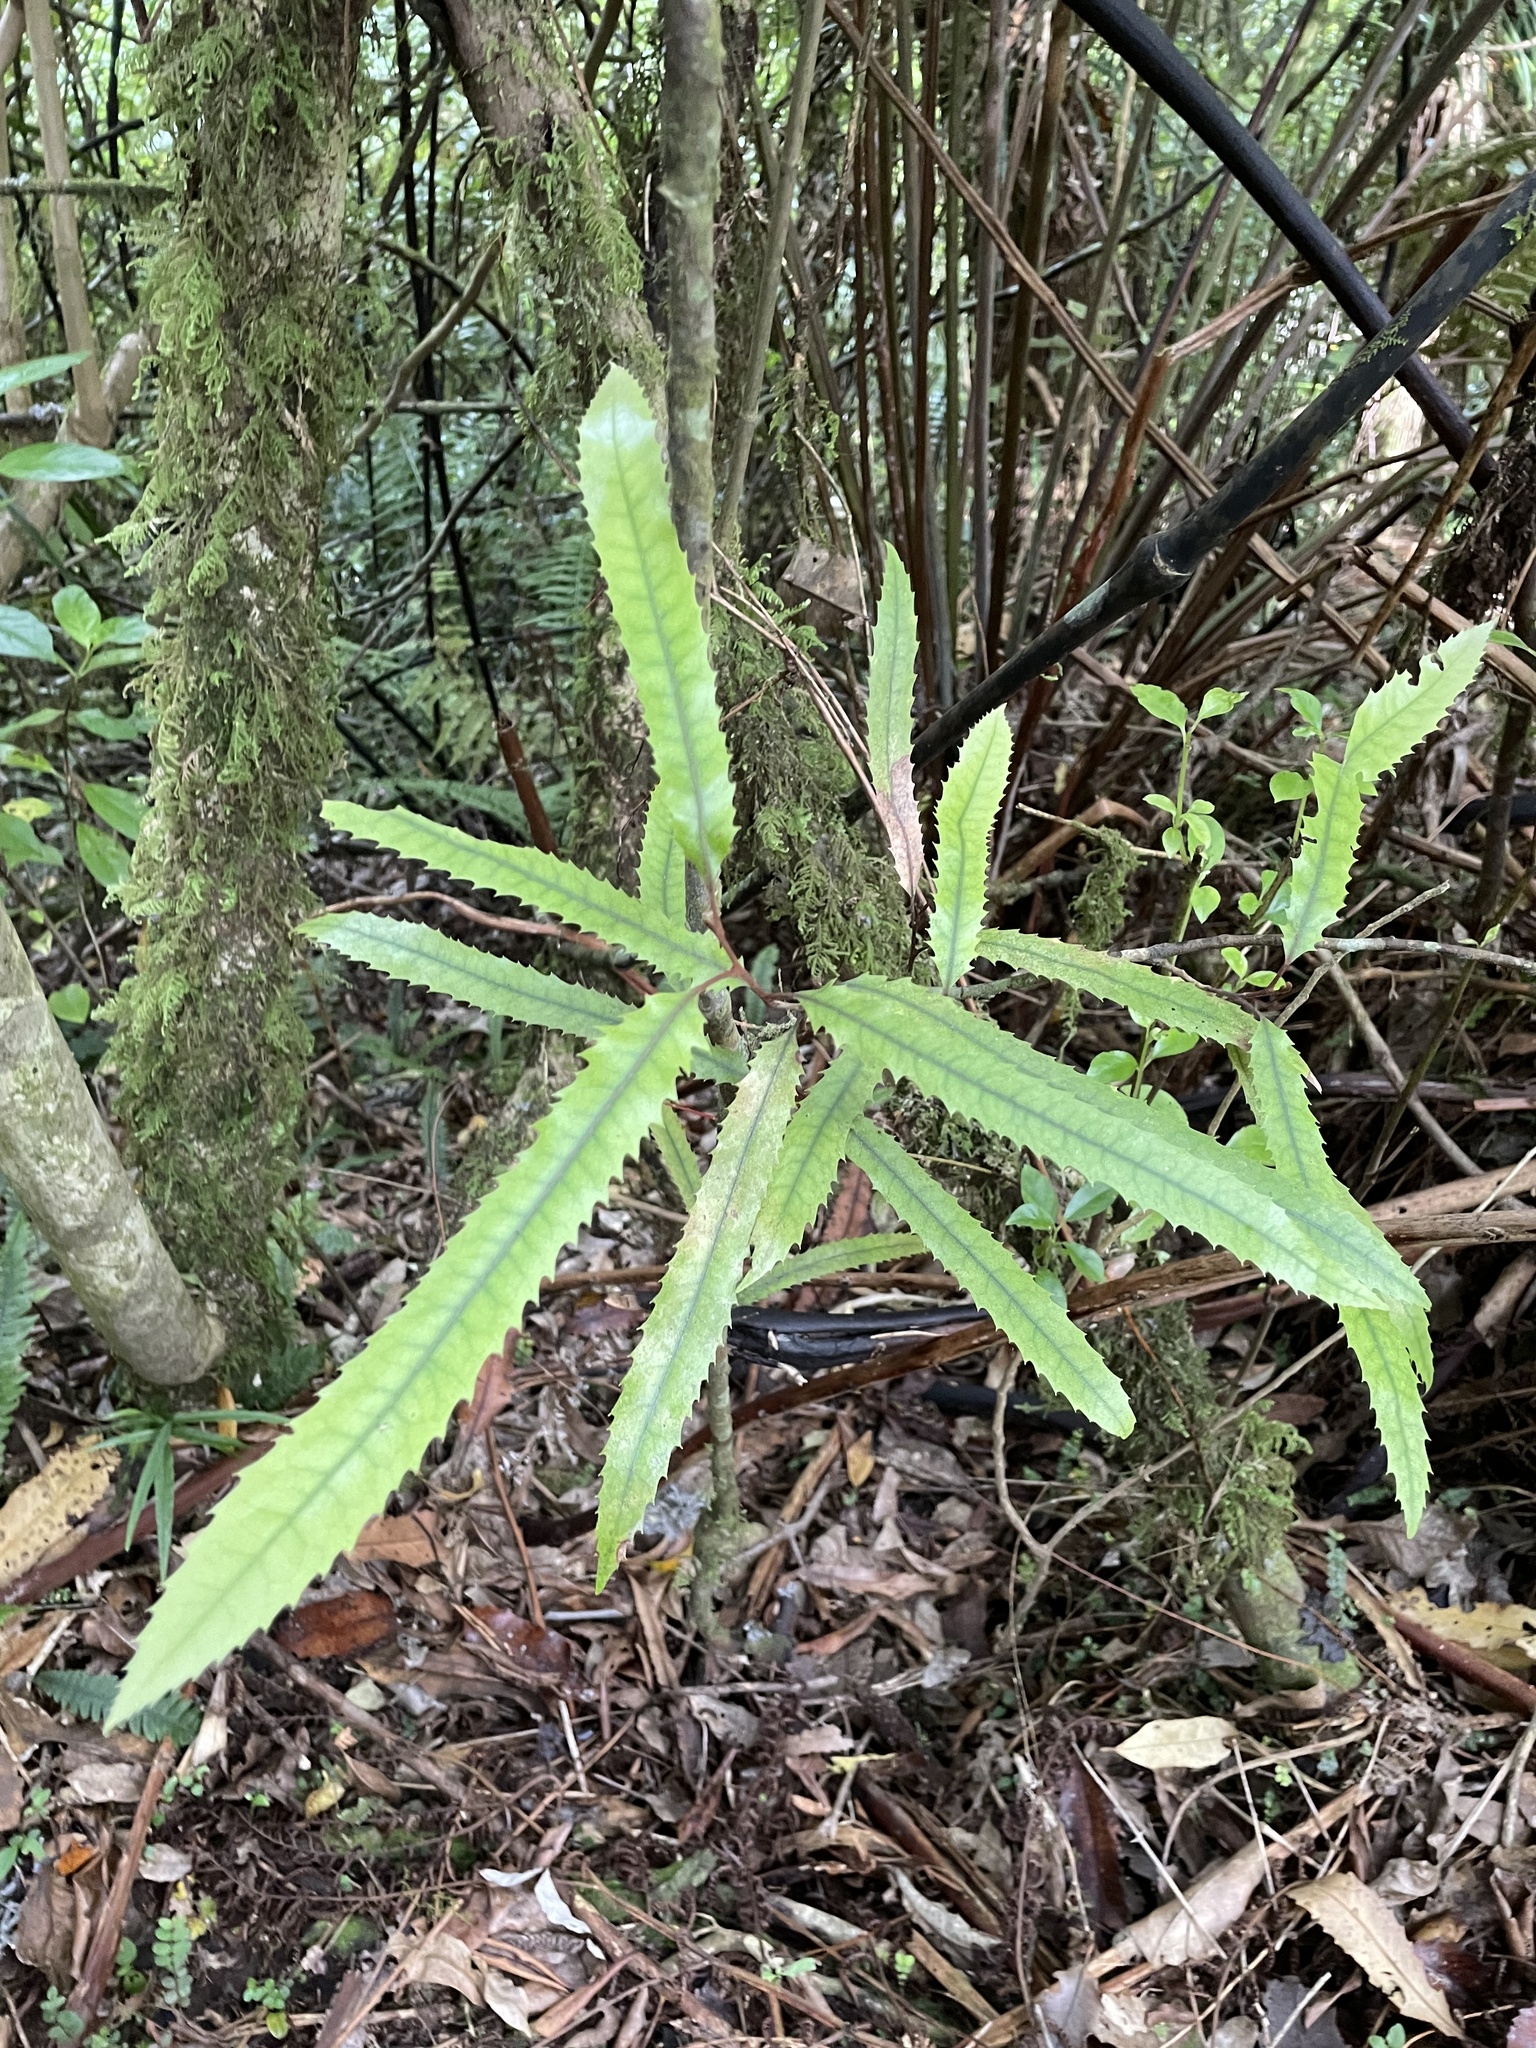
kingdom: Plantae
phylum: Tracheophyta
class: Magnoliopsida
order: Proteales
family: Proteaceae
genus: Knightia
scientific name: Knightia excelsa
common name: New zealand-honeysuckle
